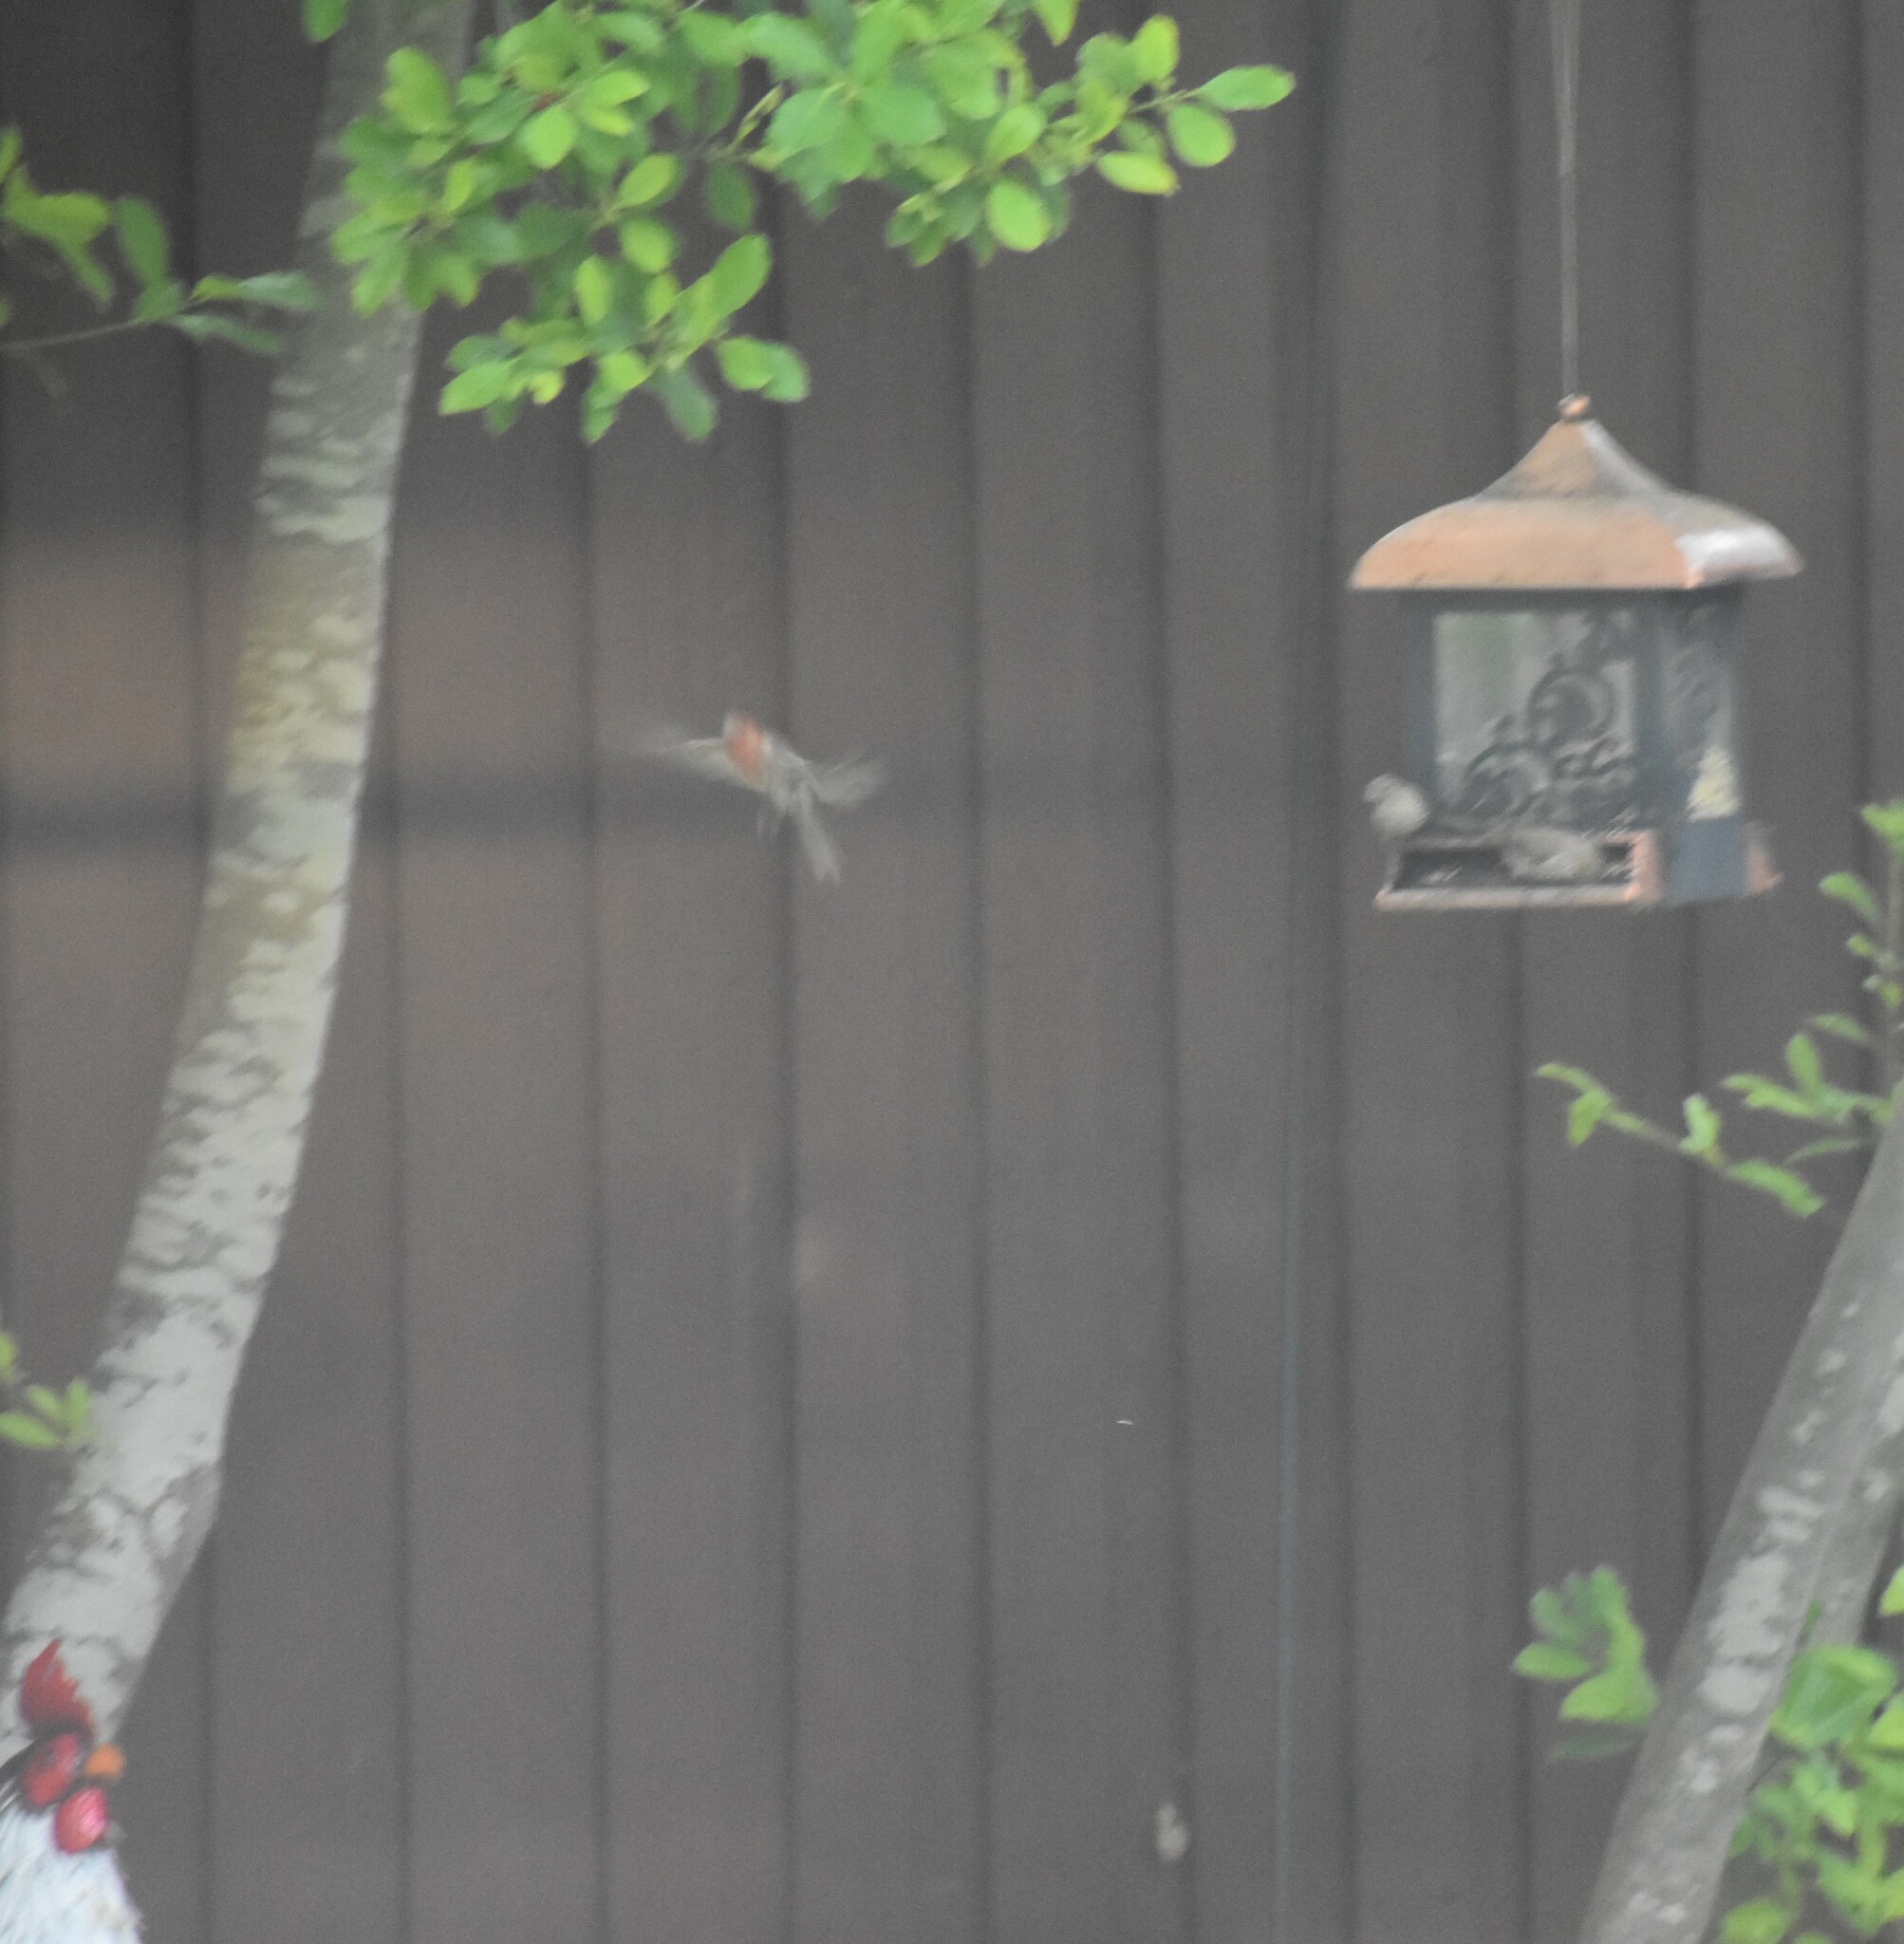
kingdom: Animalia
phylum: Chordata
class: Aves
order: Passeriformes
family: Fringillidae
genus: Haemorhous
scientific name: Haemorhous mexicanus
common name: House finch
